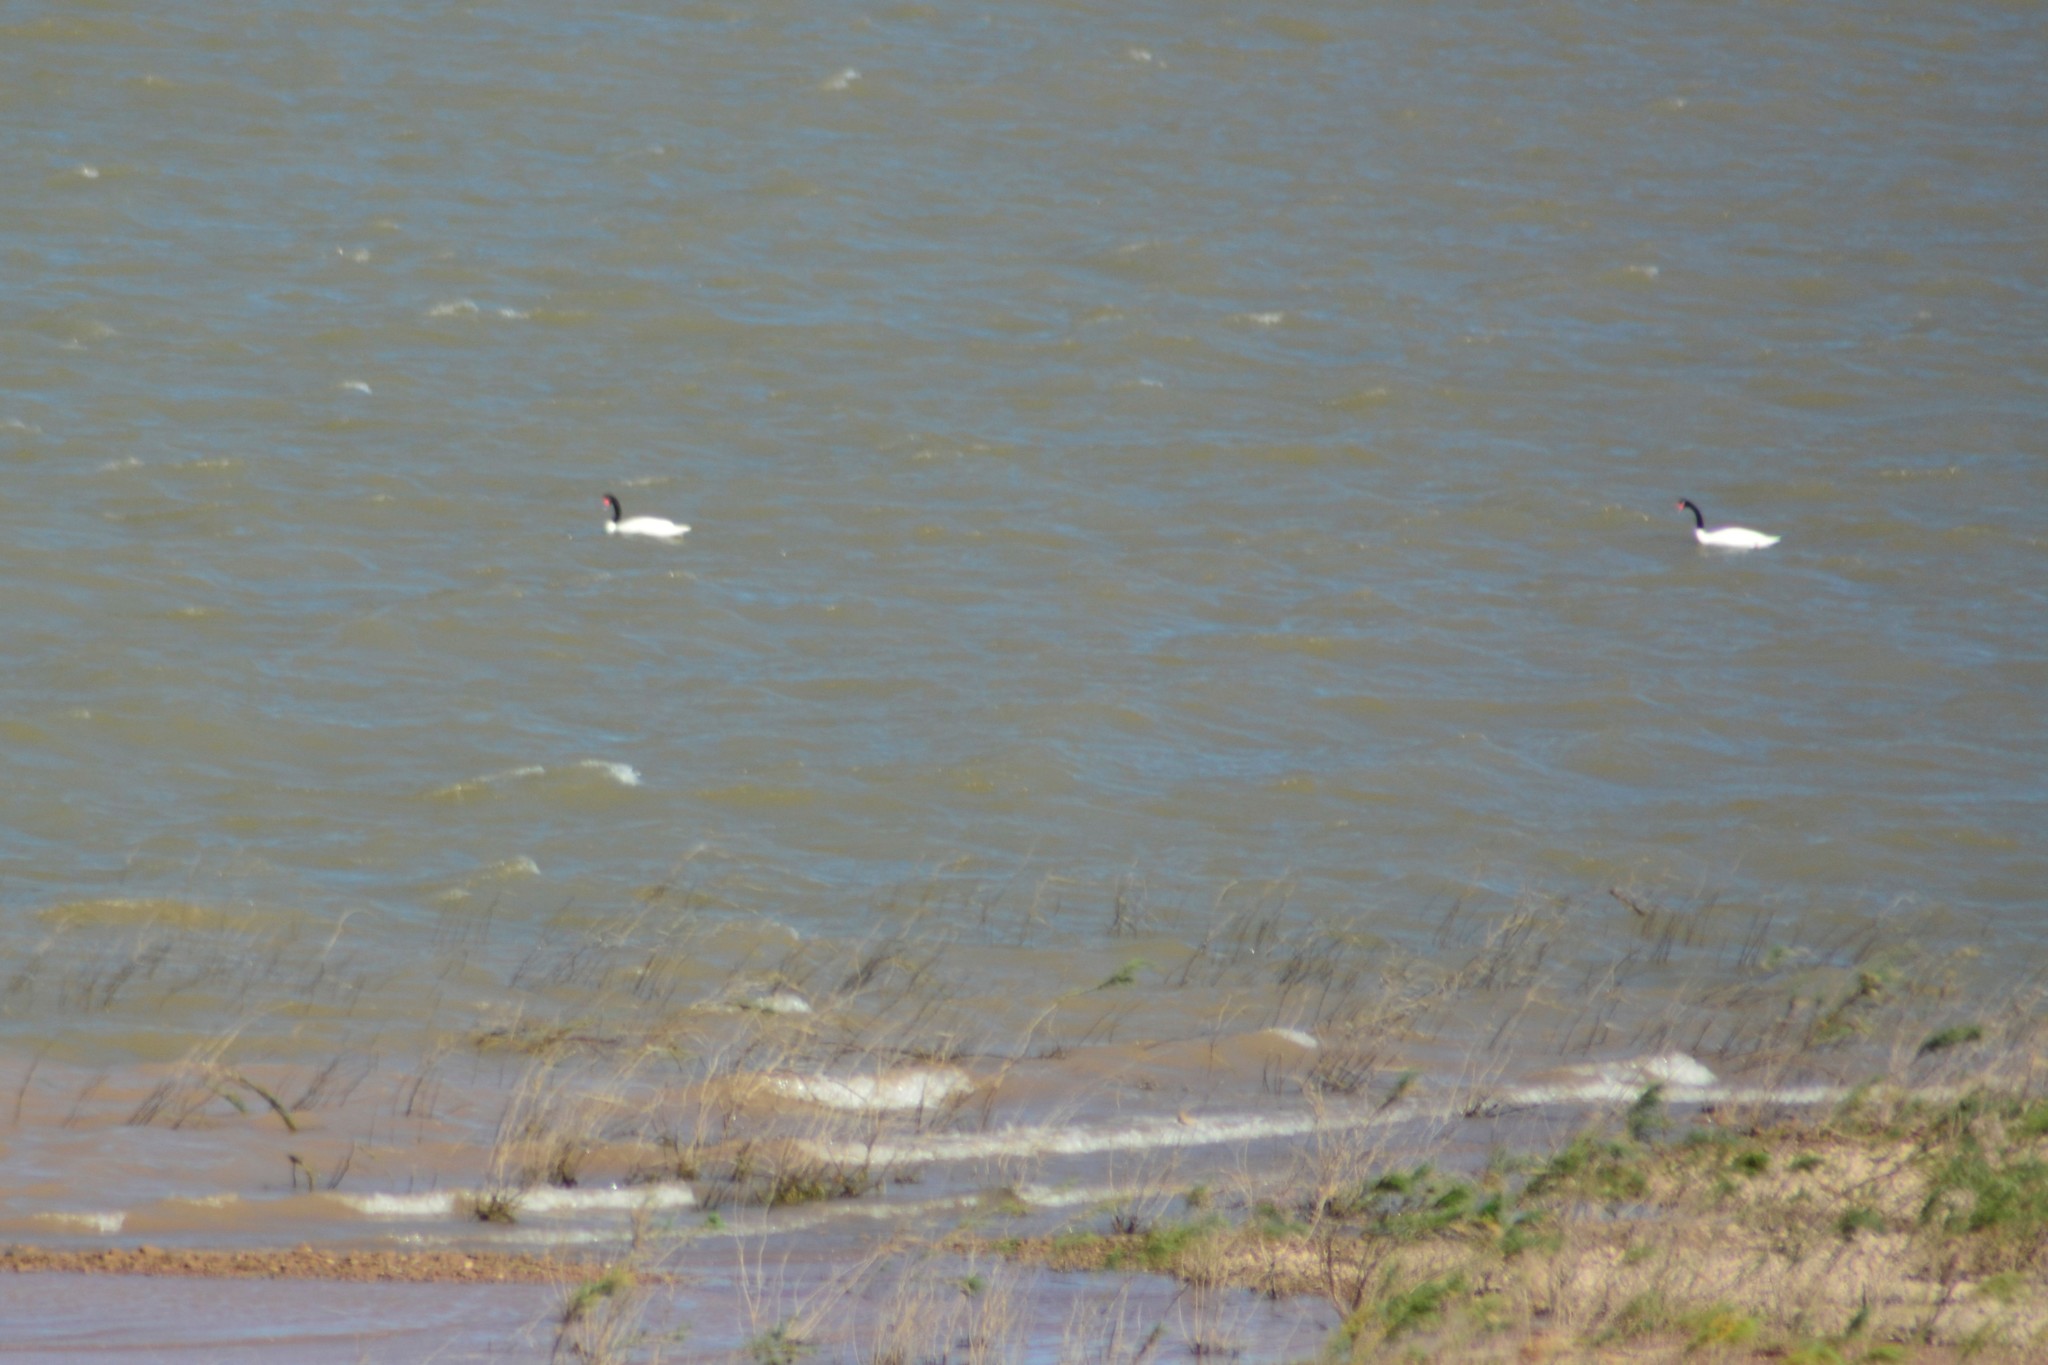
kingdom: Animalia
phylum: Chordata
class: Aves
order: Anseriformes
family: Anatidae
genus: Cygnus
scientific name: Cygnus melancoryphus
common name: Black-necked swan
